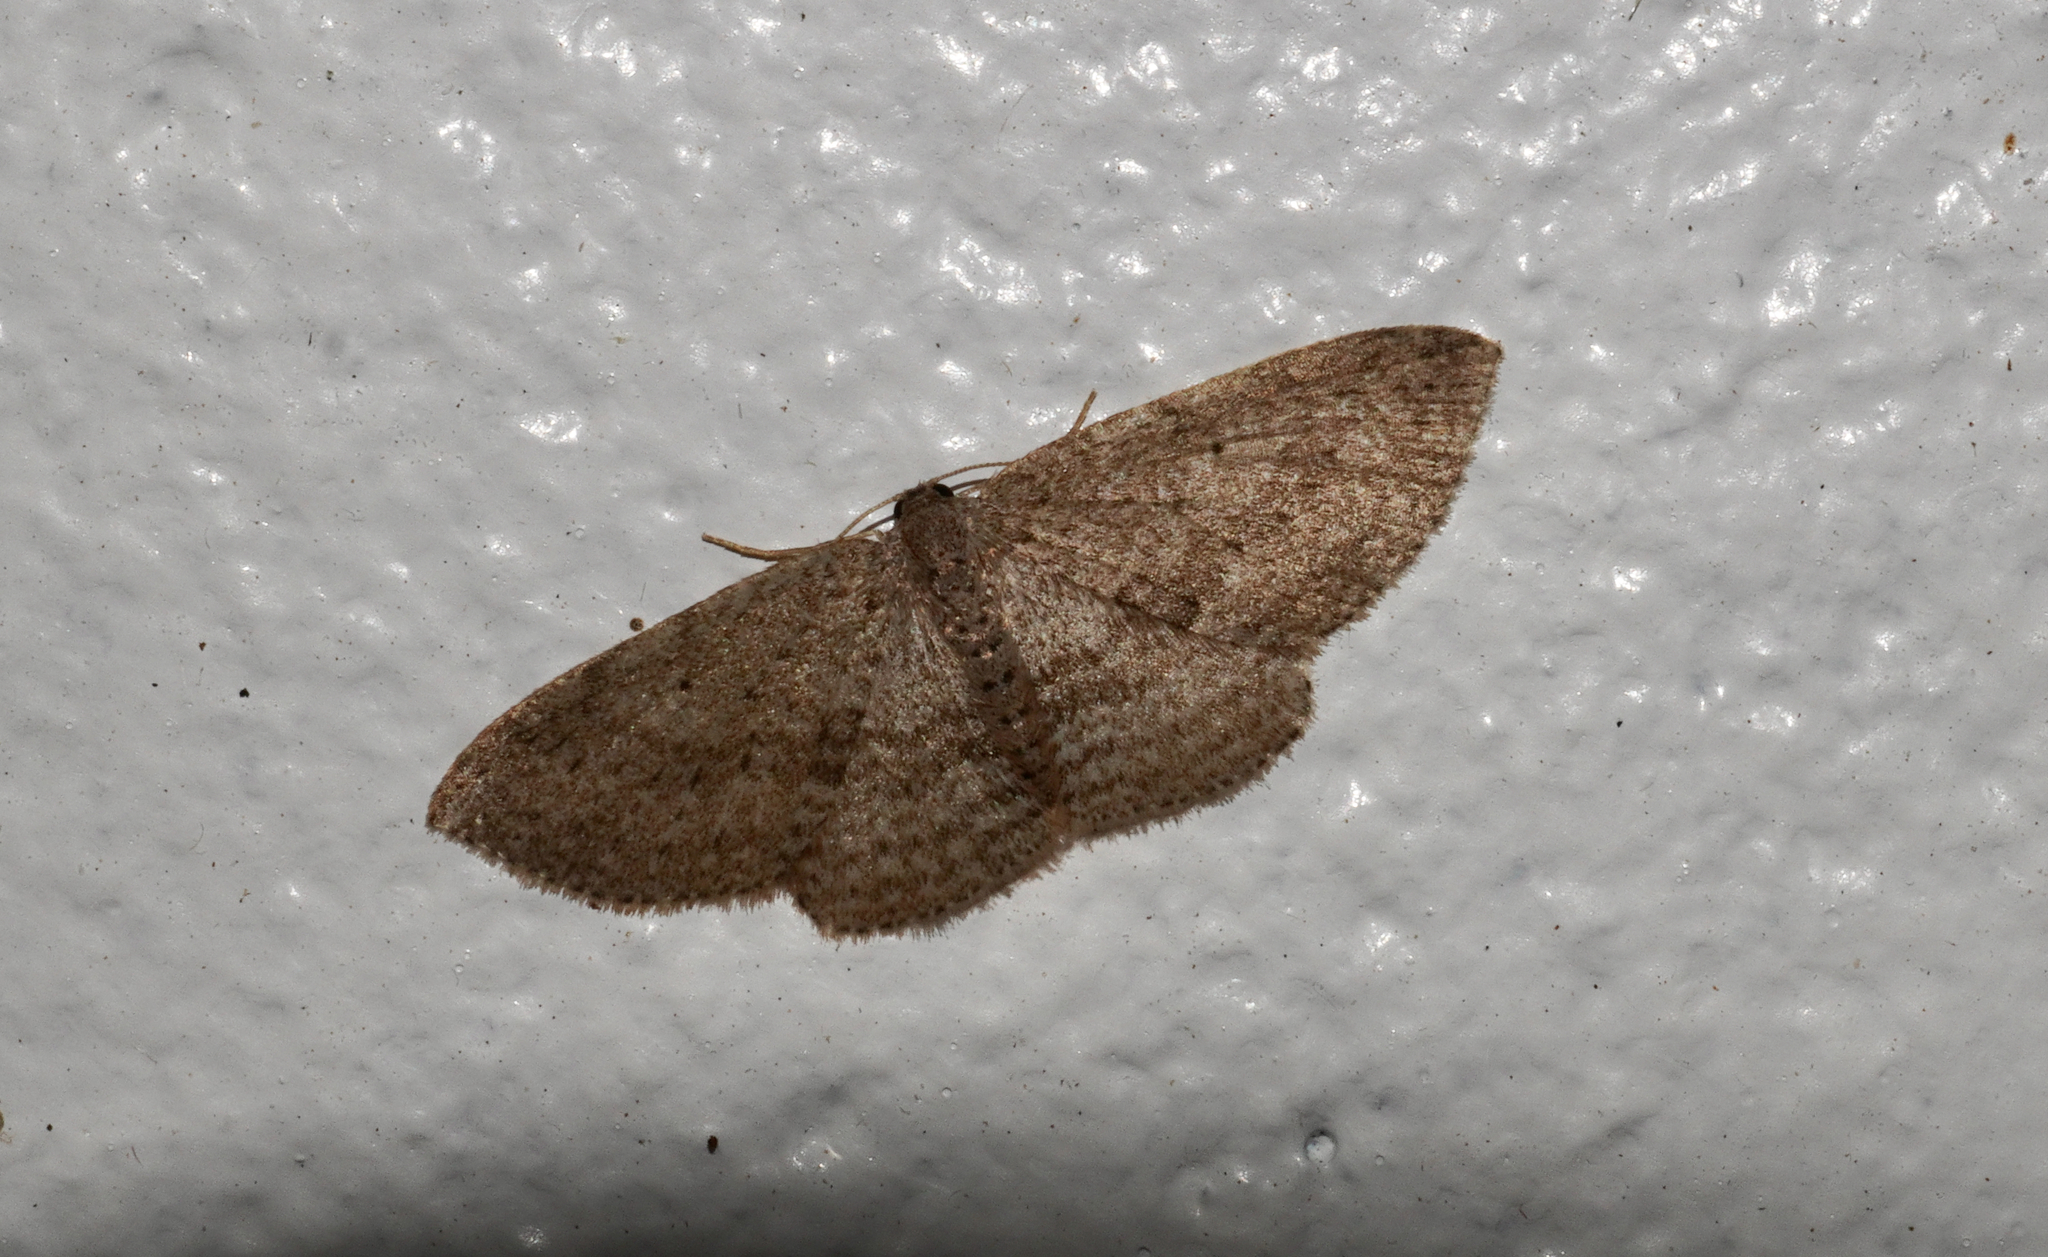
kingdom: Animalia
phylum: Arthropoda
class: Insecta
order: Lepidoptera
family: Geometridae
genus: Poecilasthena
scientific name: Poecilasthena schistaria
